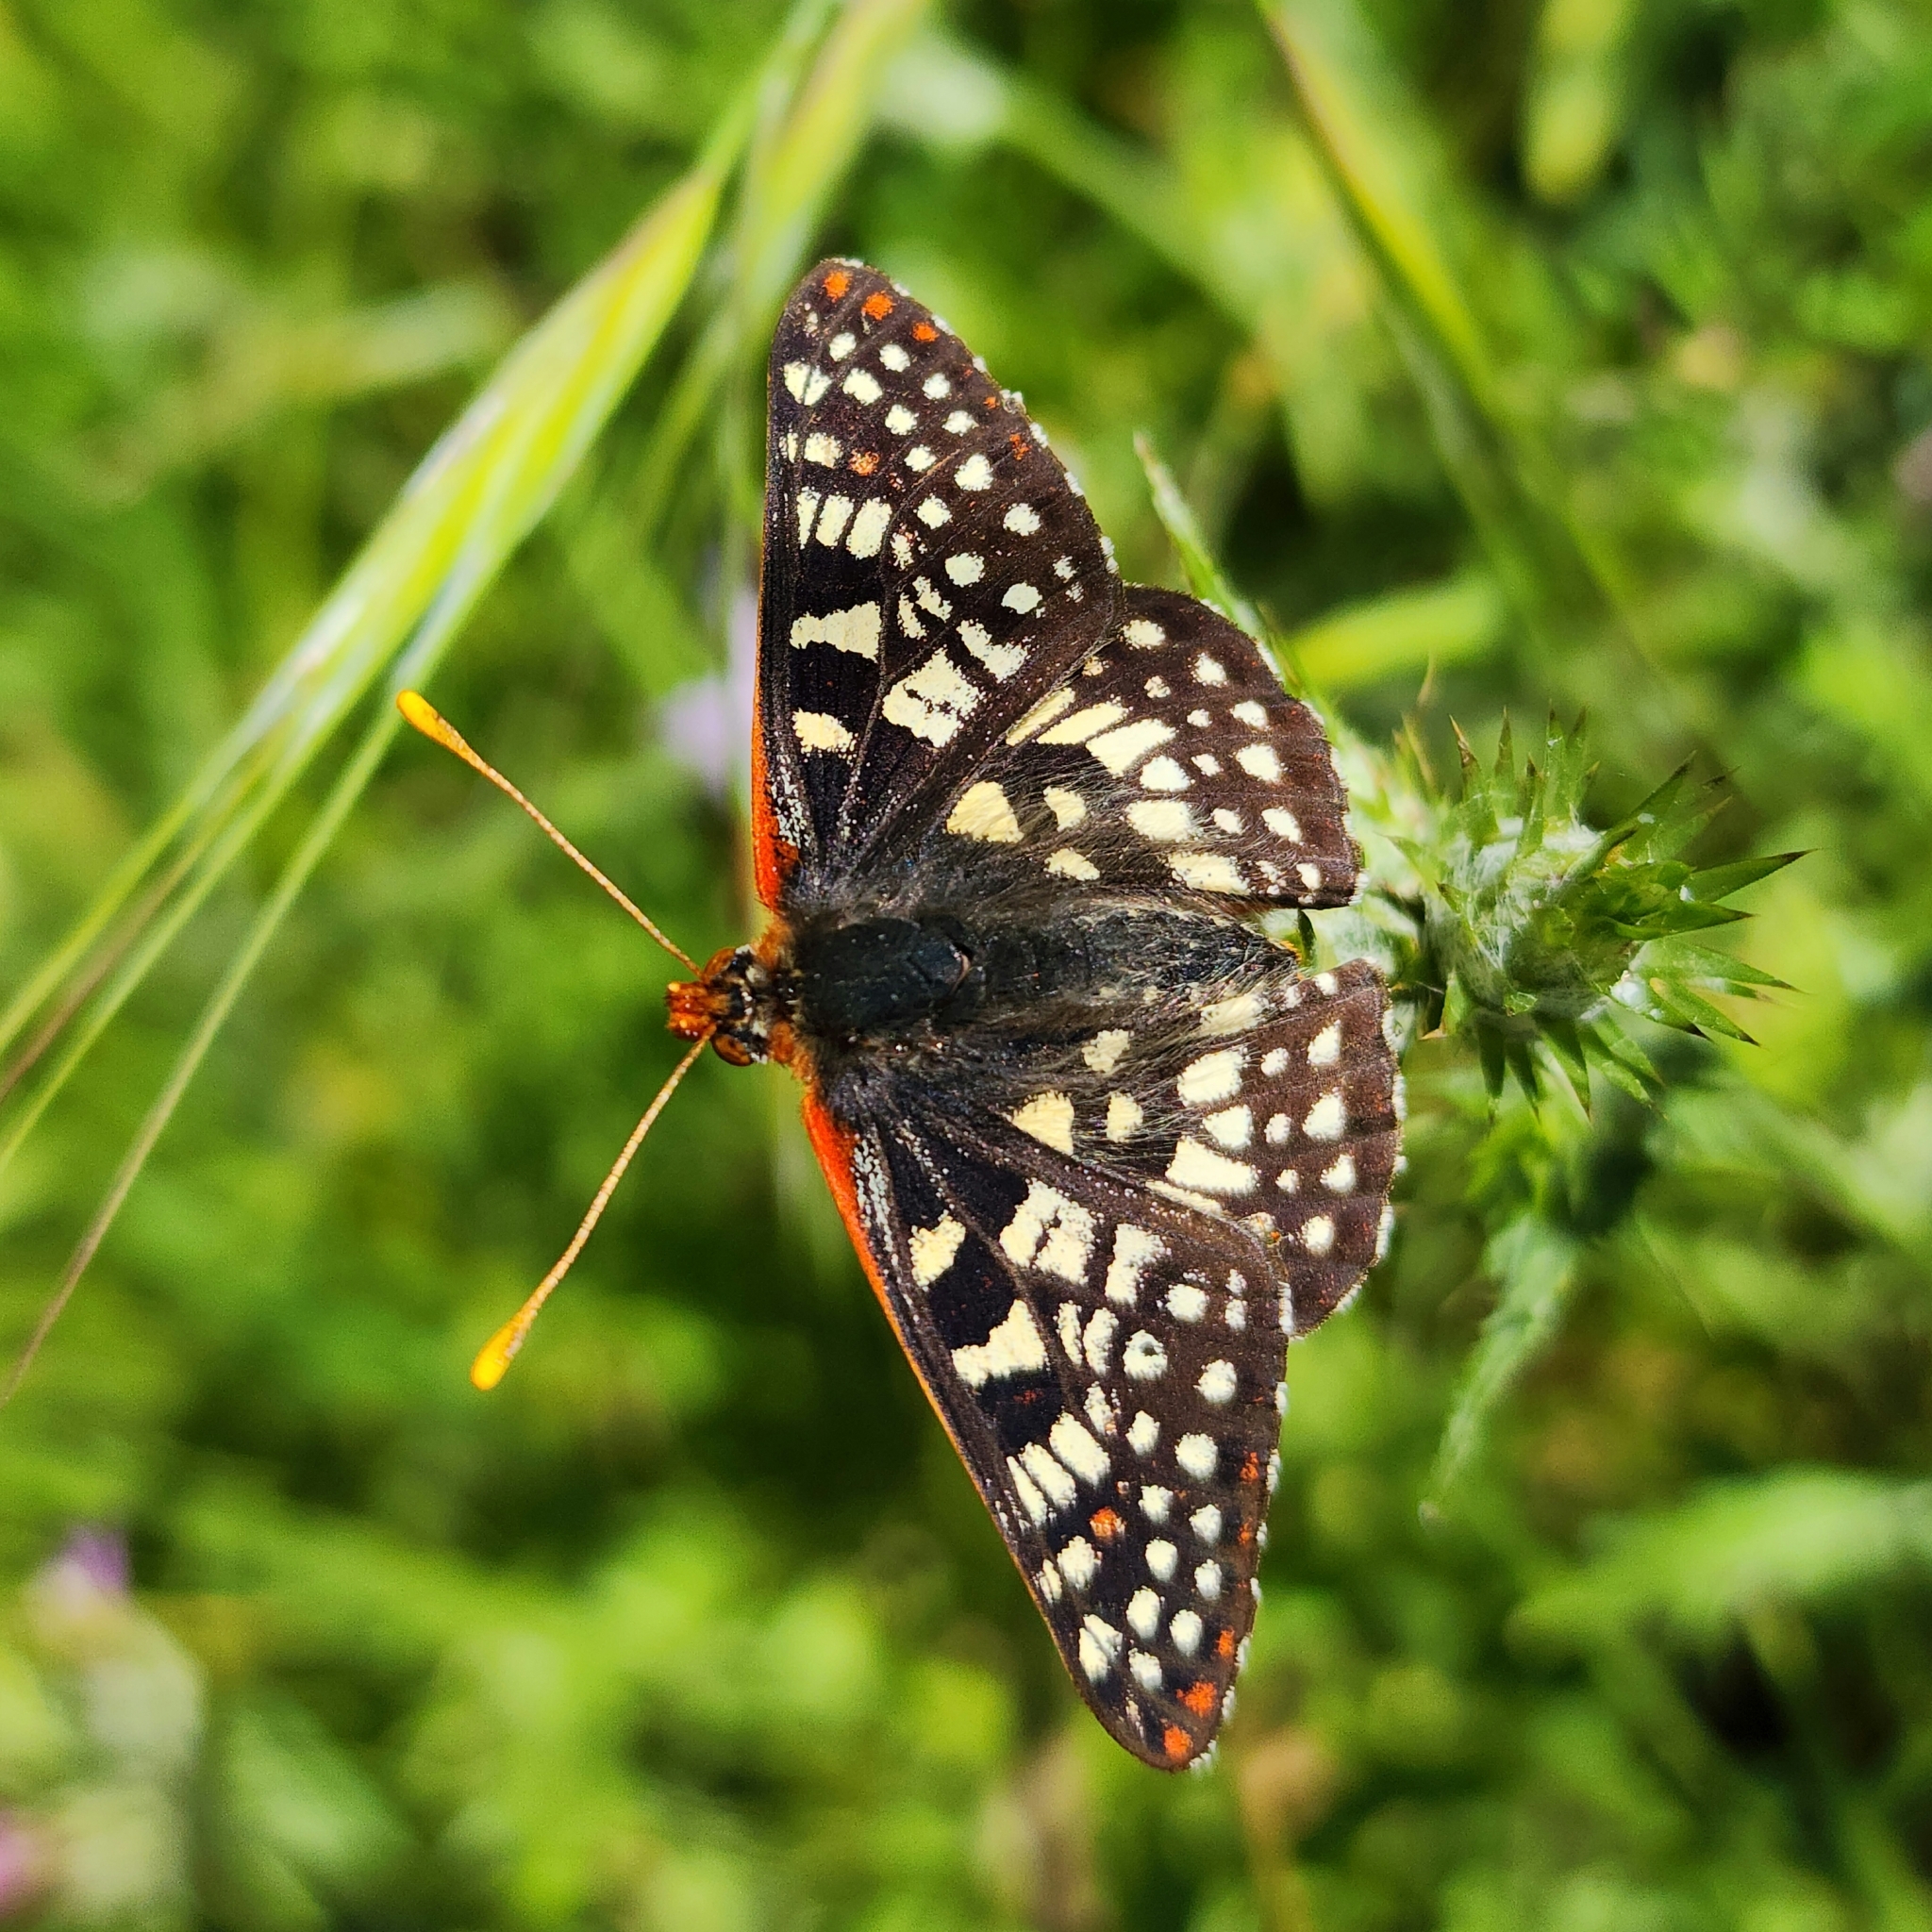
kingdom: Animalia
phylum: Arthropoda
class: Insecta
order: Lepidoptera
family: Nymphalidae
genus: Occidryas
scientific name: Occidryas chalcedona
